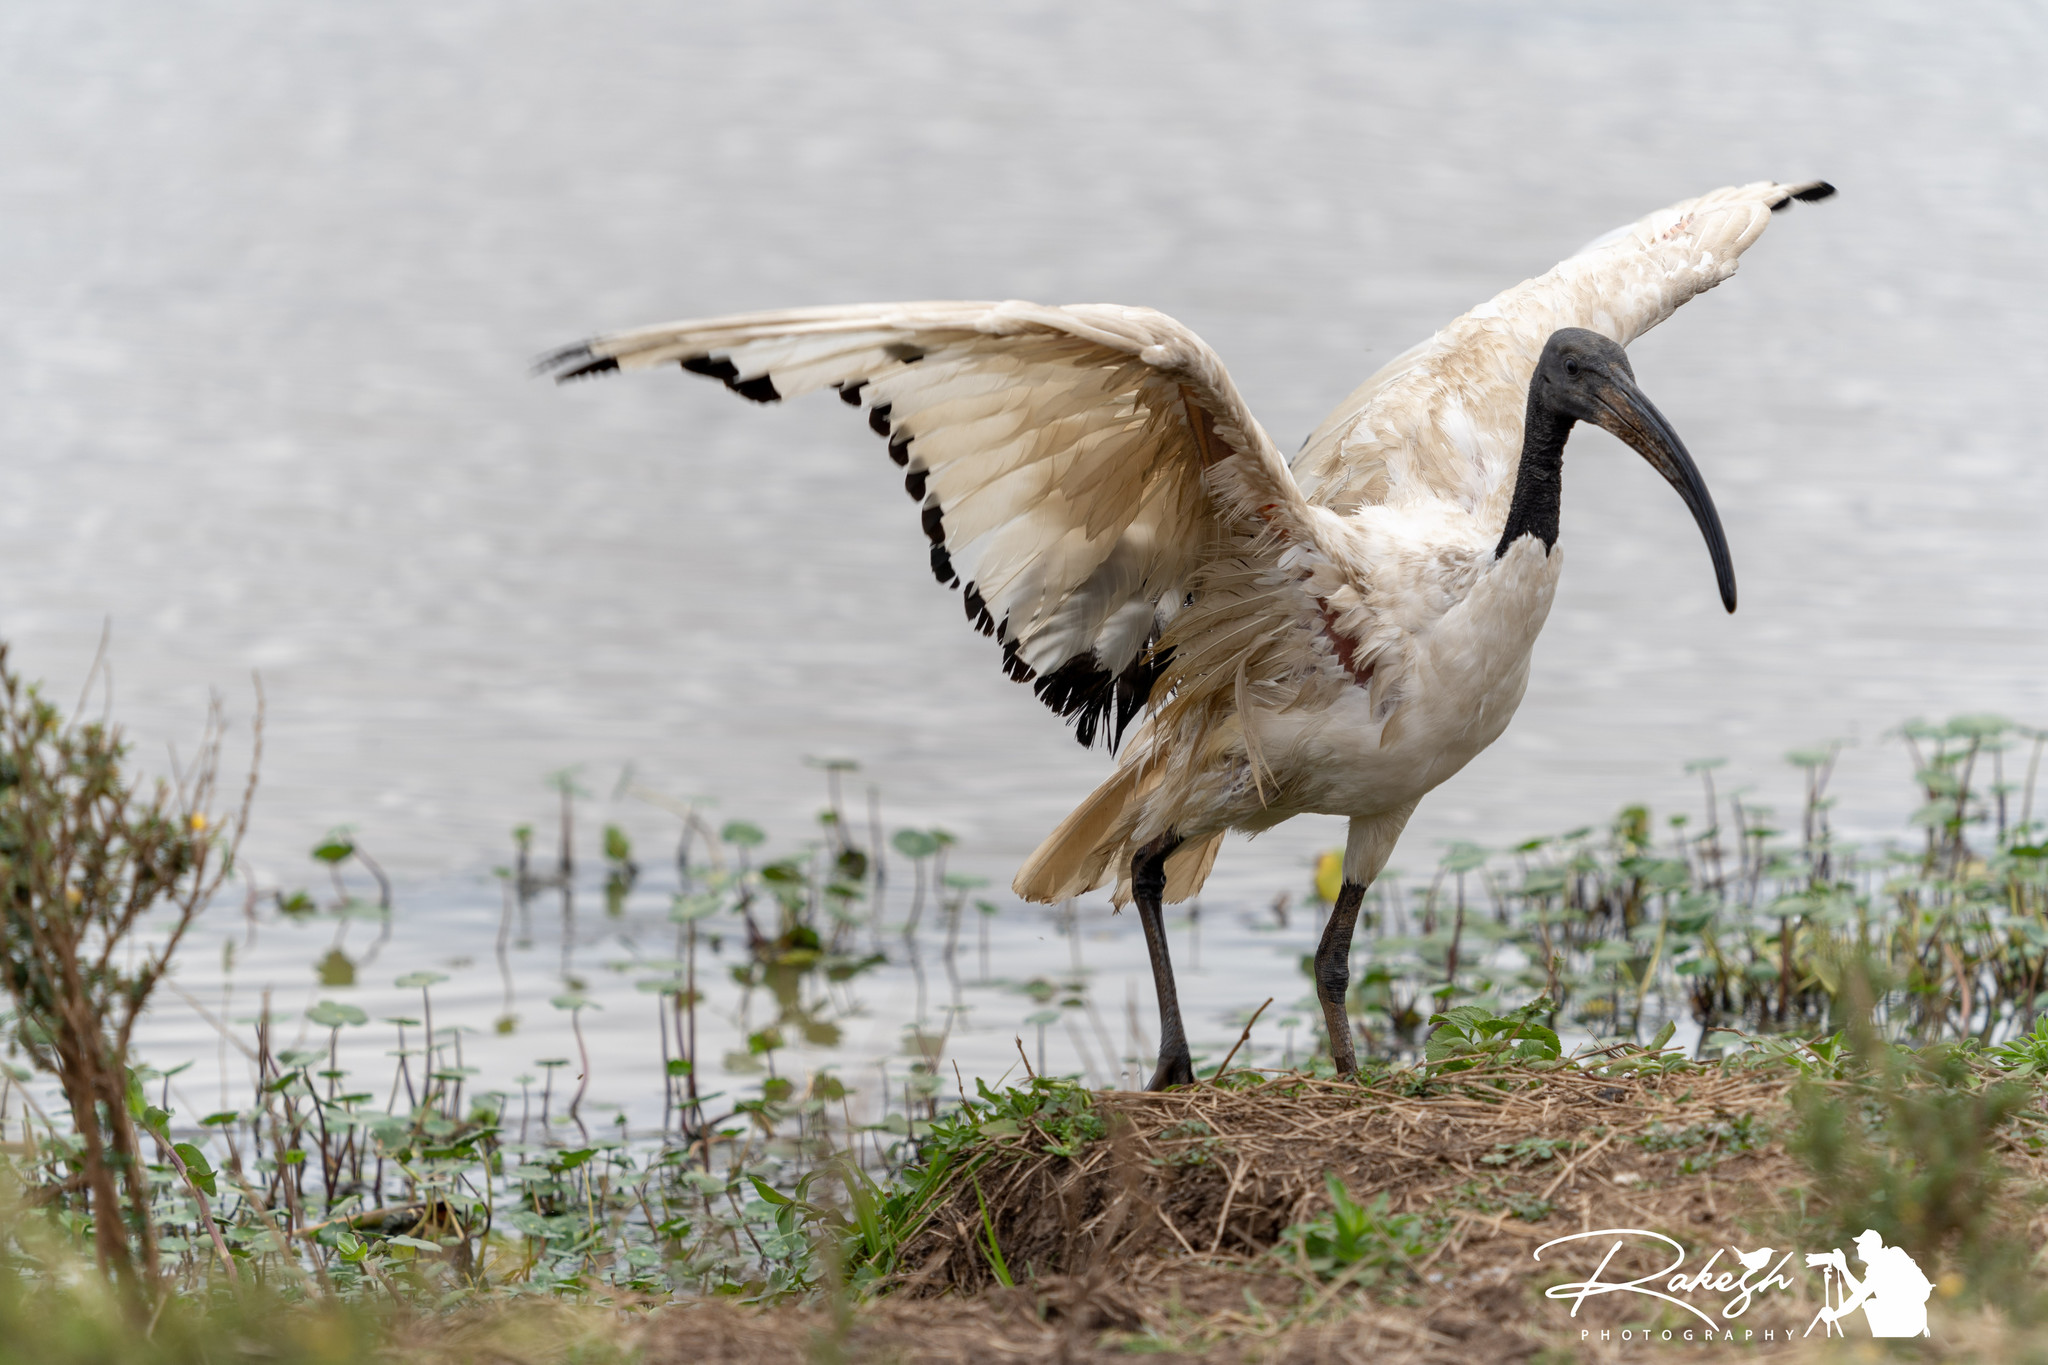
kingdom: Animalia
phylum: Chordata
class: Aves
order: Pelecaniformes
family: Threskiornithidae
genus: Threskiornis
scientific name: Threskiornis aethiopicus
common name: Sacred ibis
